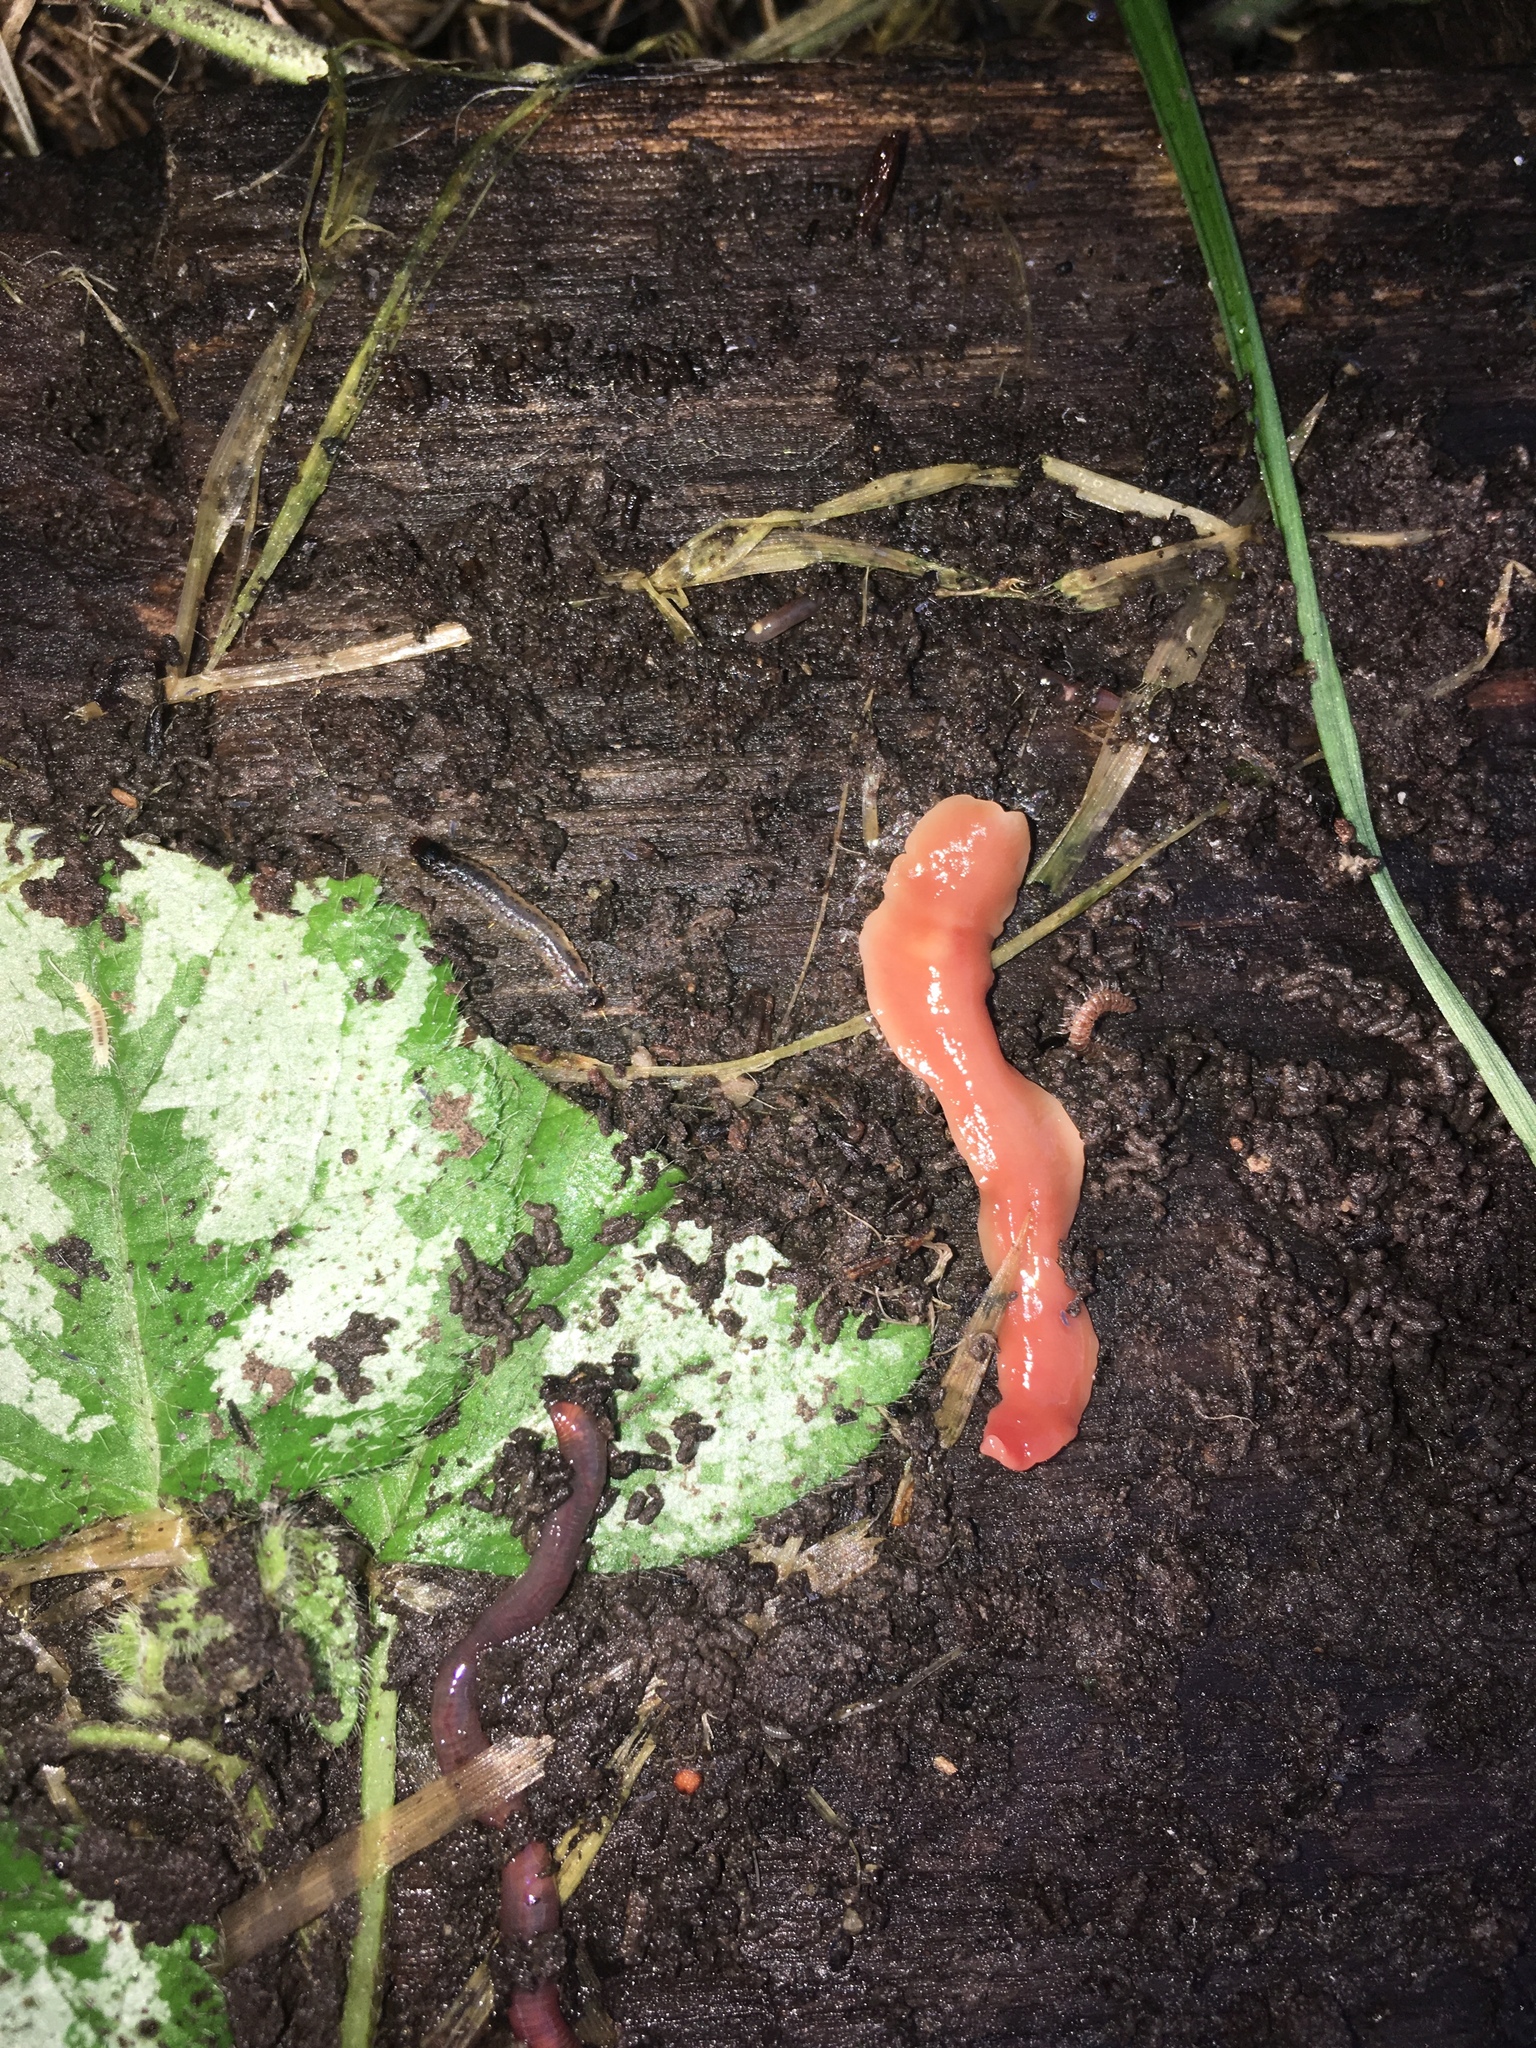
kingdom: Animalia
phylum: Platyhelminthes
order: Tricladida
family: Geoplanidae
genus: Australoplana
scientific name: Australoplana sanguinea
